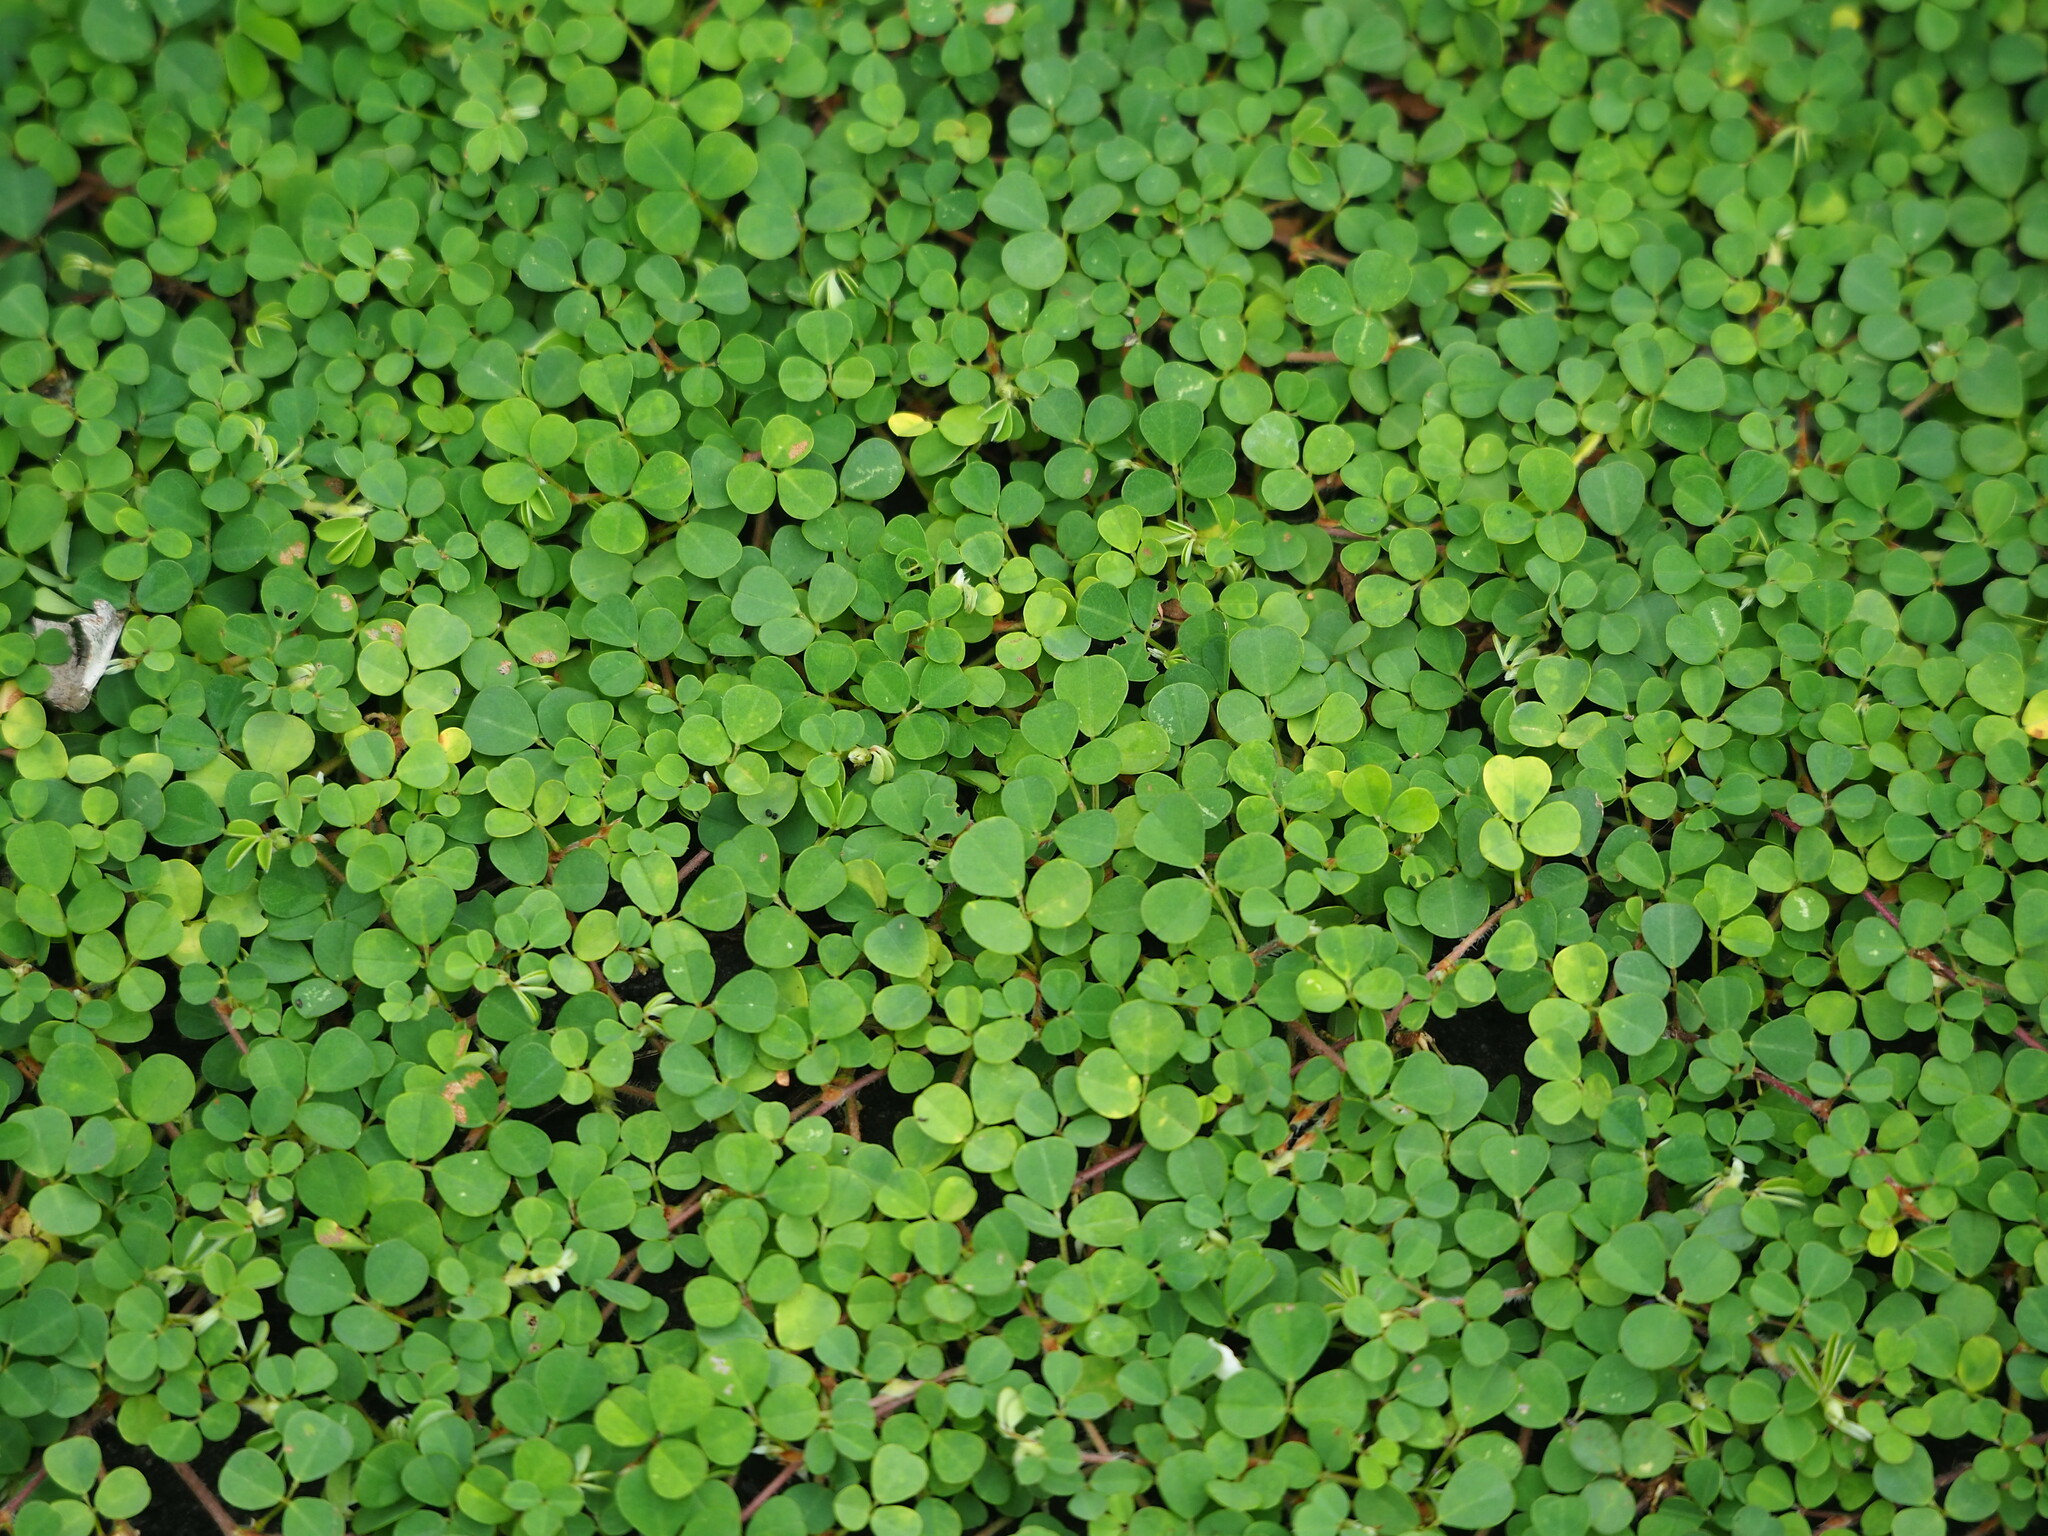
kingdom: Plantae
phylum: Tracheophyta
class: Magnoliopsida
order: Fabales
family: Fabaceae
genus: Grona
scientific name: Grona triflora
